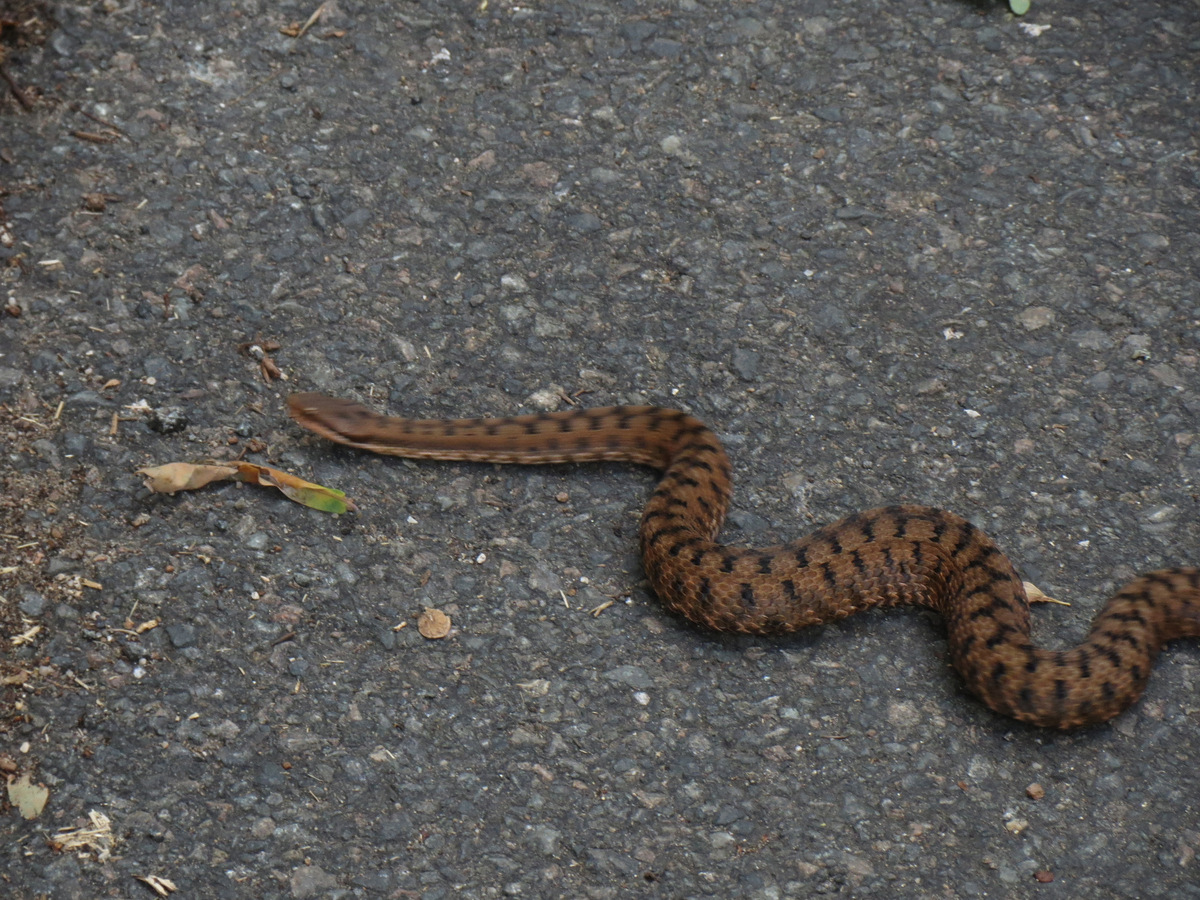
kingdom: Animalia
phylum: Chordata
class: Squamata
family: Viperidae
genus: Vipera
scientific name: Vipera aspis
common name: Asp viper
